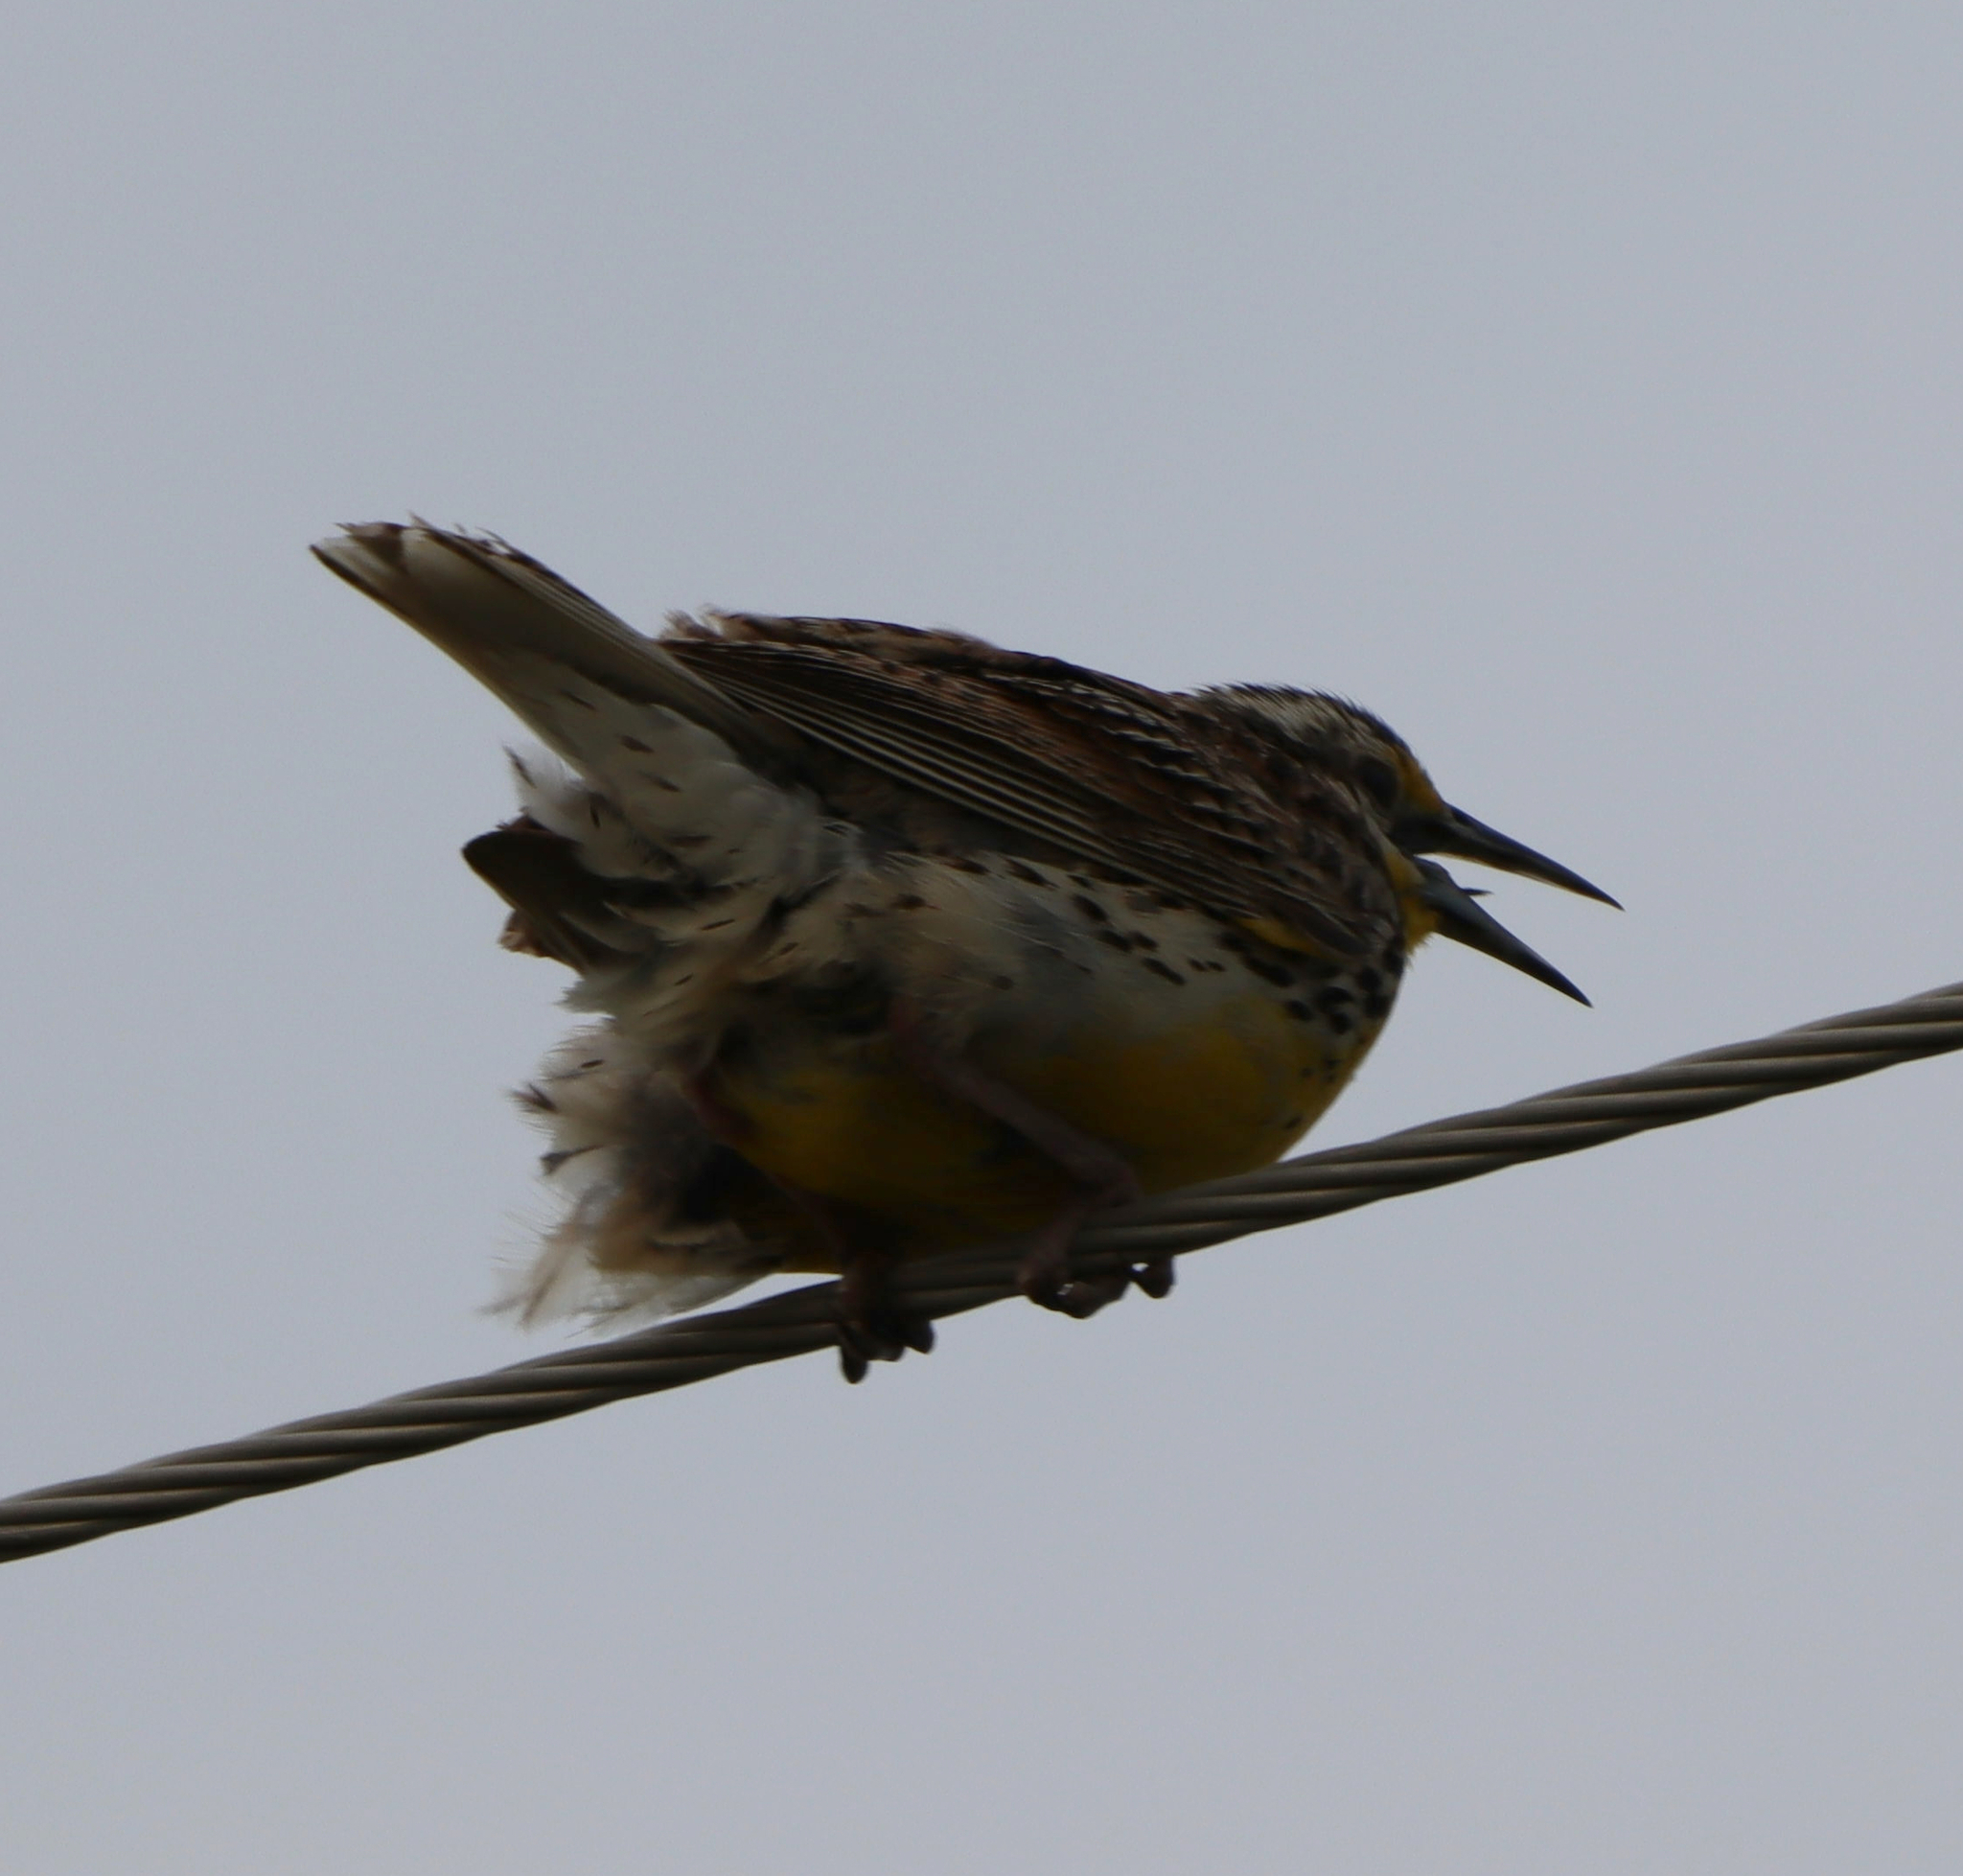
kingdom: Animalia
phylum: Chordata
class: Aves
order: Passeriformes
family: Icteridae
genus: Sturnella
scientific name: Sturnella neglecta
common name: Western meadowlark
